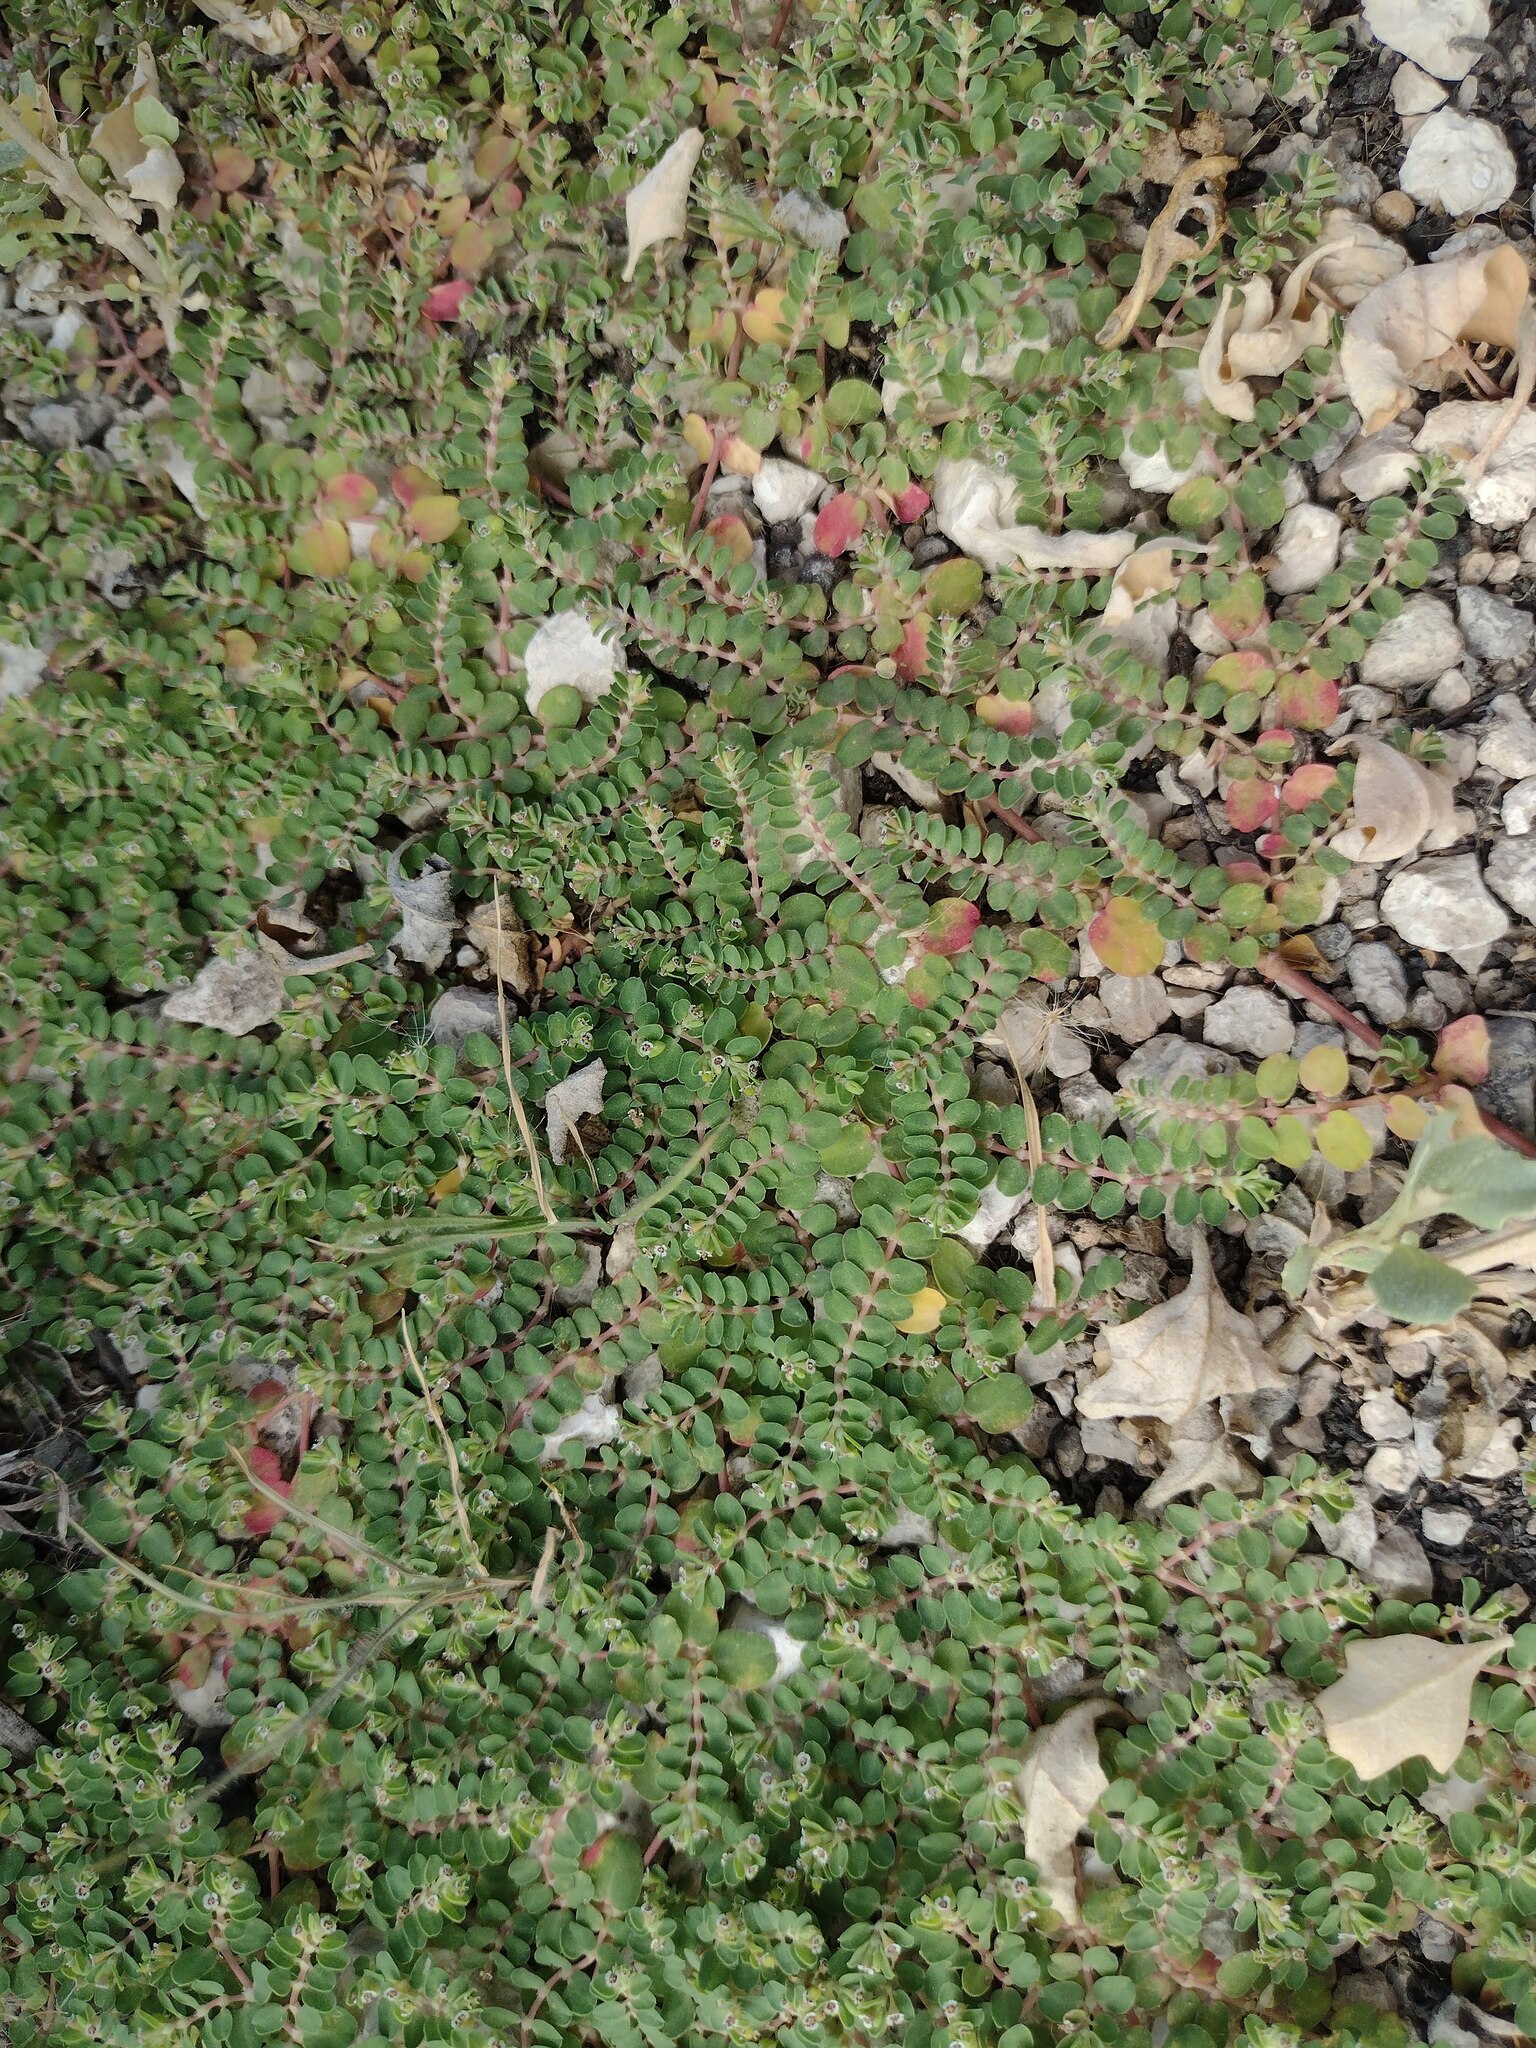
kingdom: Plantae
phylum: Tracheophyta
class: Magnoliopsida
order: Malpighiales
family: Euphorbiaceae
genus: Euphorbia
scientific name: Euphorbia serpens
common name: Matted sandmat
